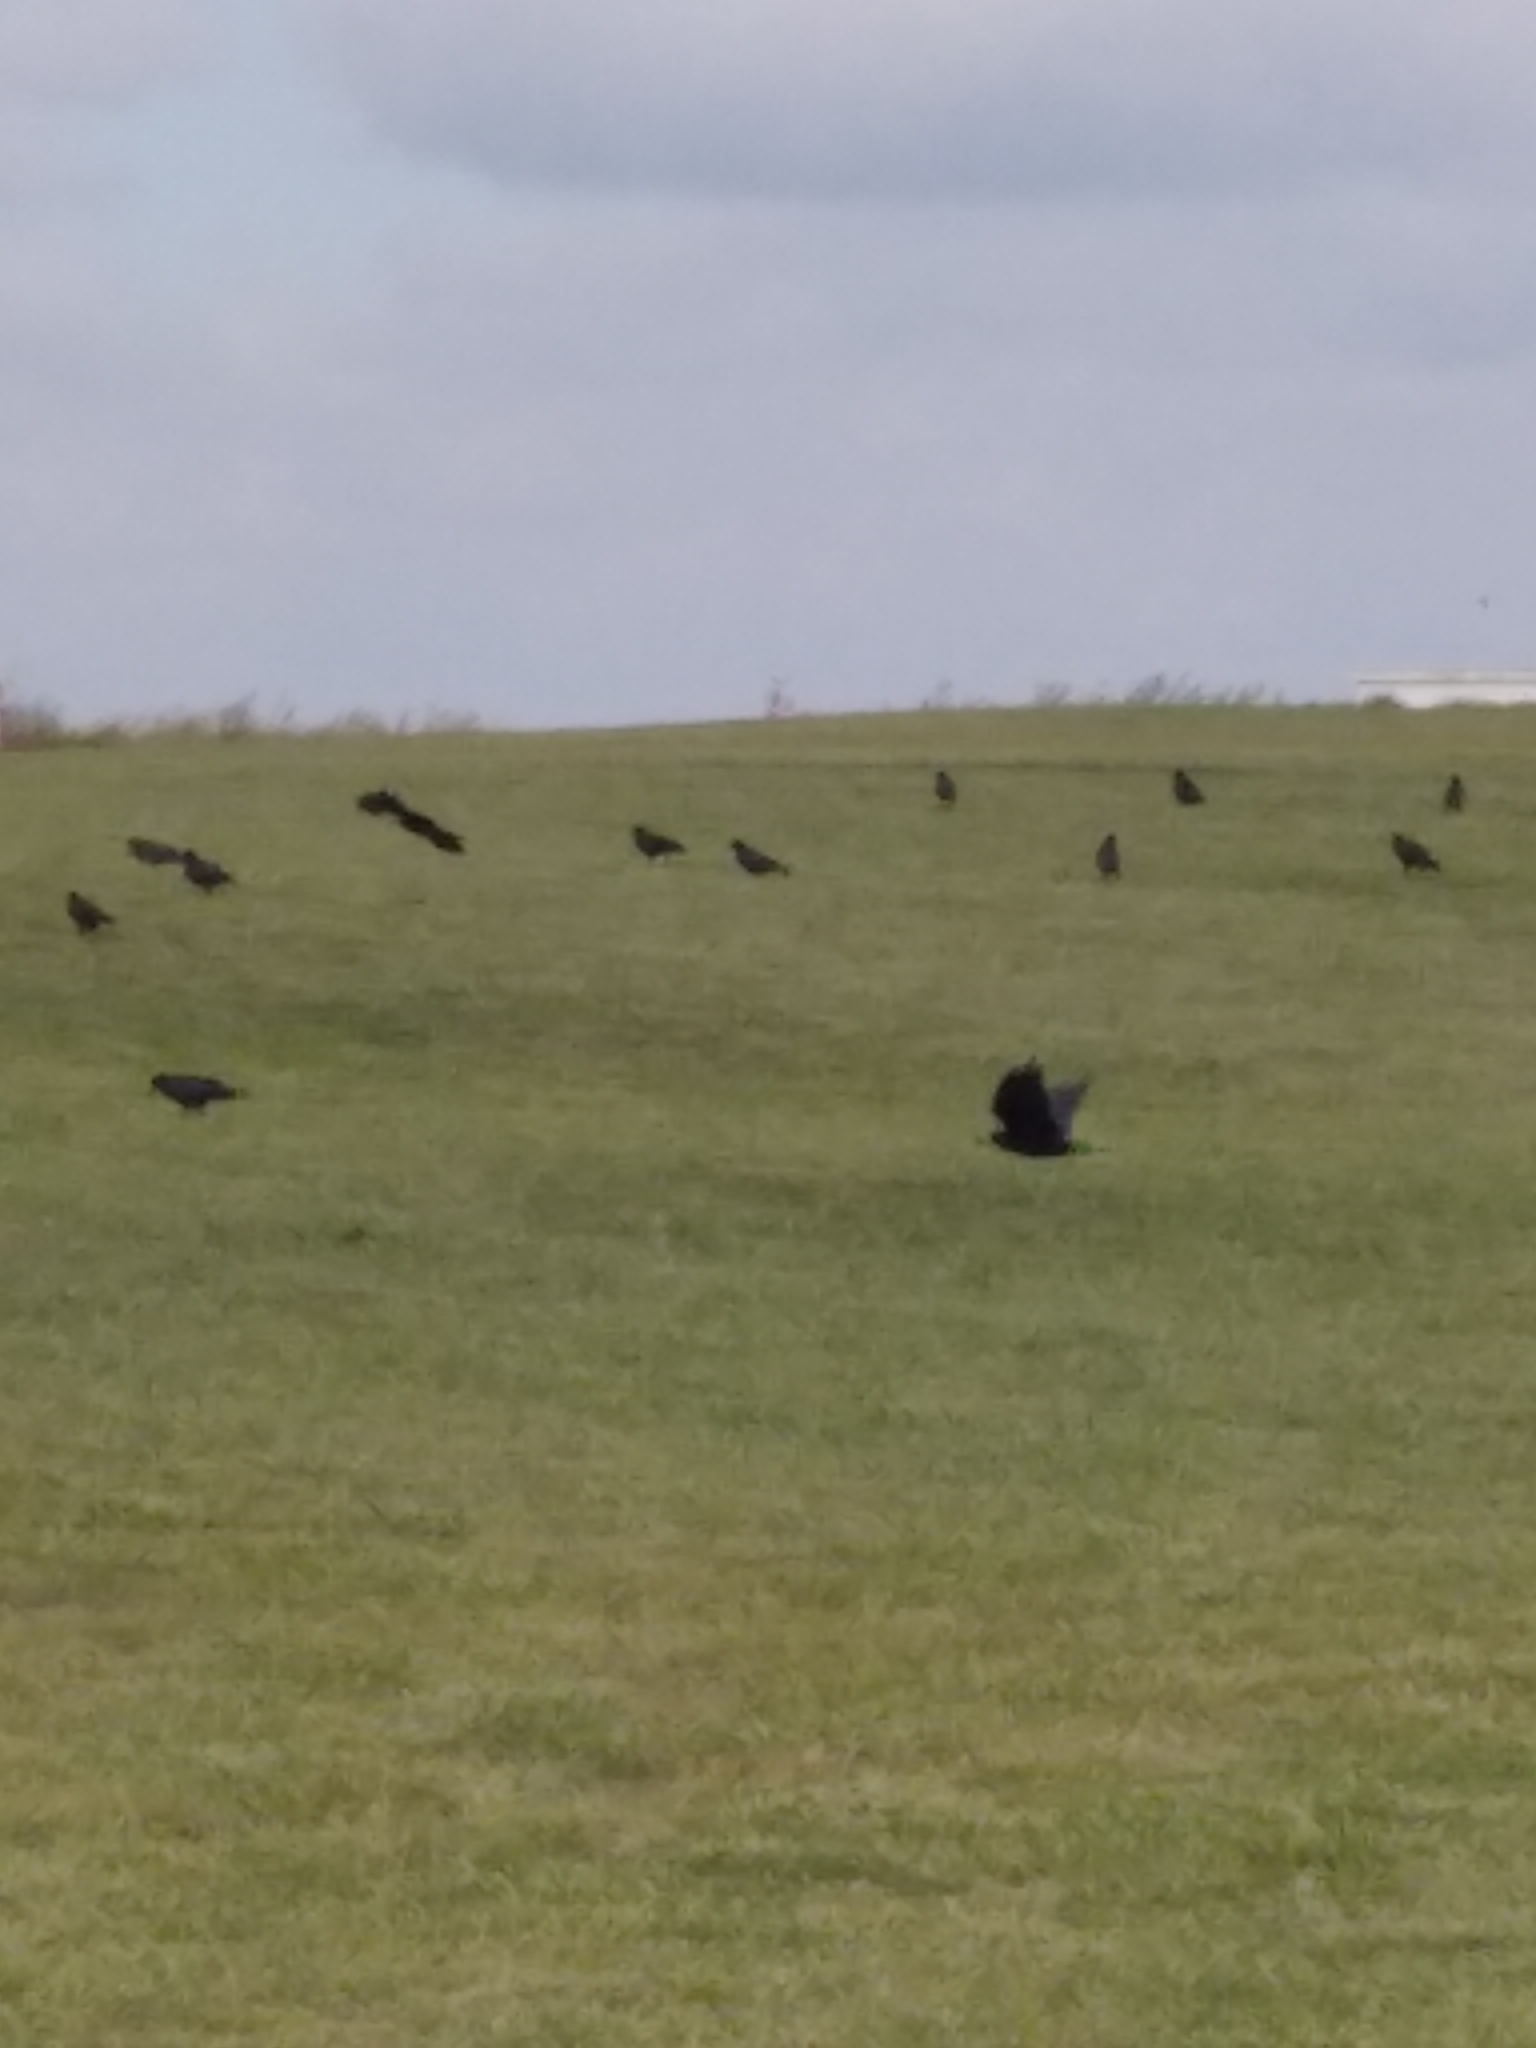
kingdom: Animalia
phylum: Chordata
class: Aves
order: Passeriformes
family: Corvidae
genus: Corvus
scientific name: Corvus frugilegus
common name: Rook
